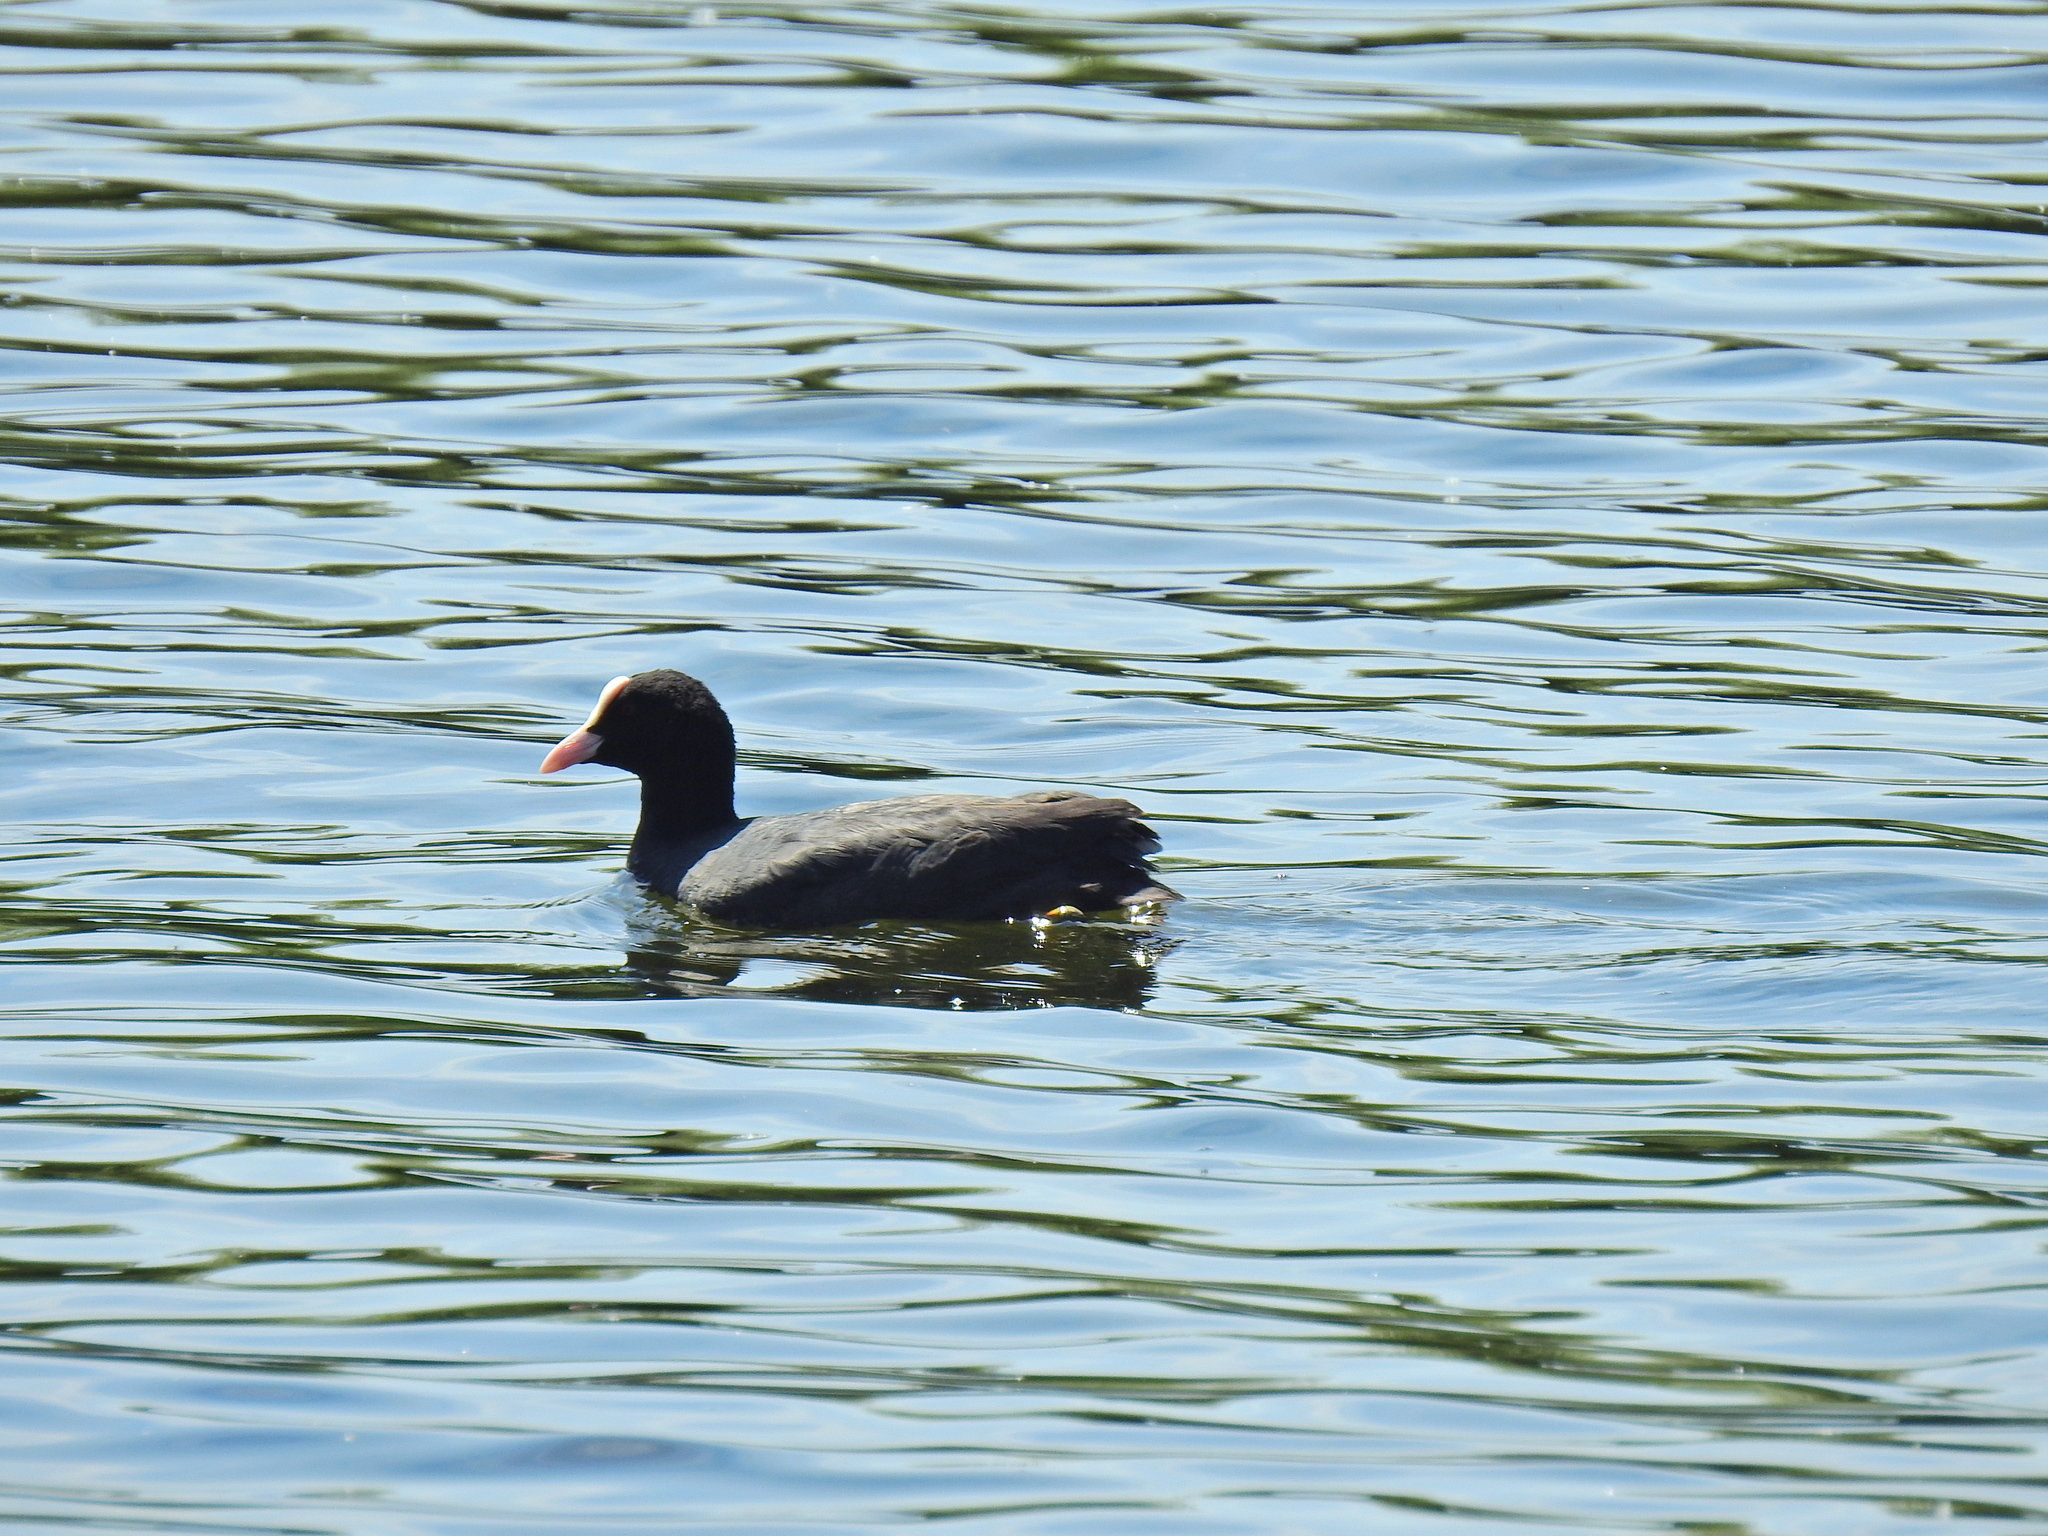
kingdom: Animalia
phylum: Chordata
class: Aves
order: Gruiformes
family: Rallidae
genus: Fulica
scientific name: Fulica atra
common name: Eurasian coot
